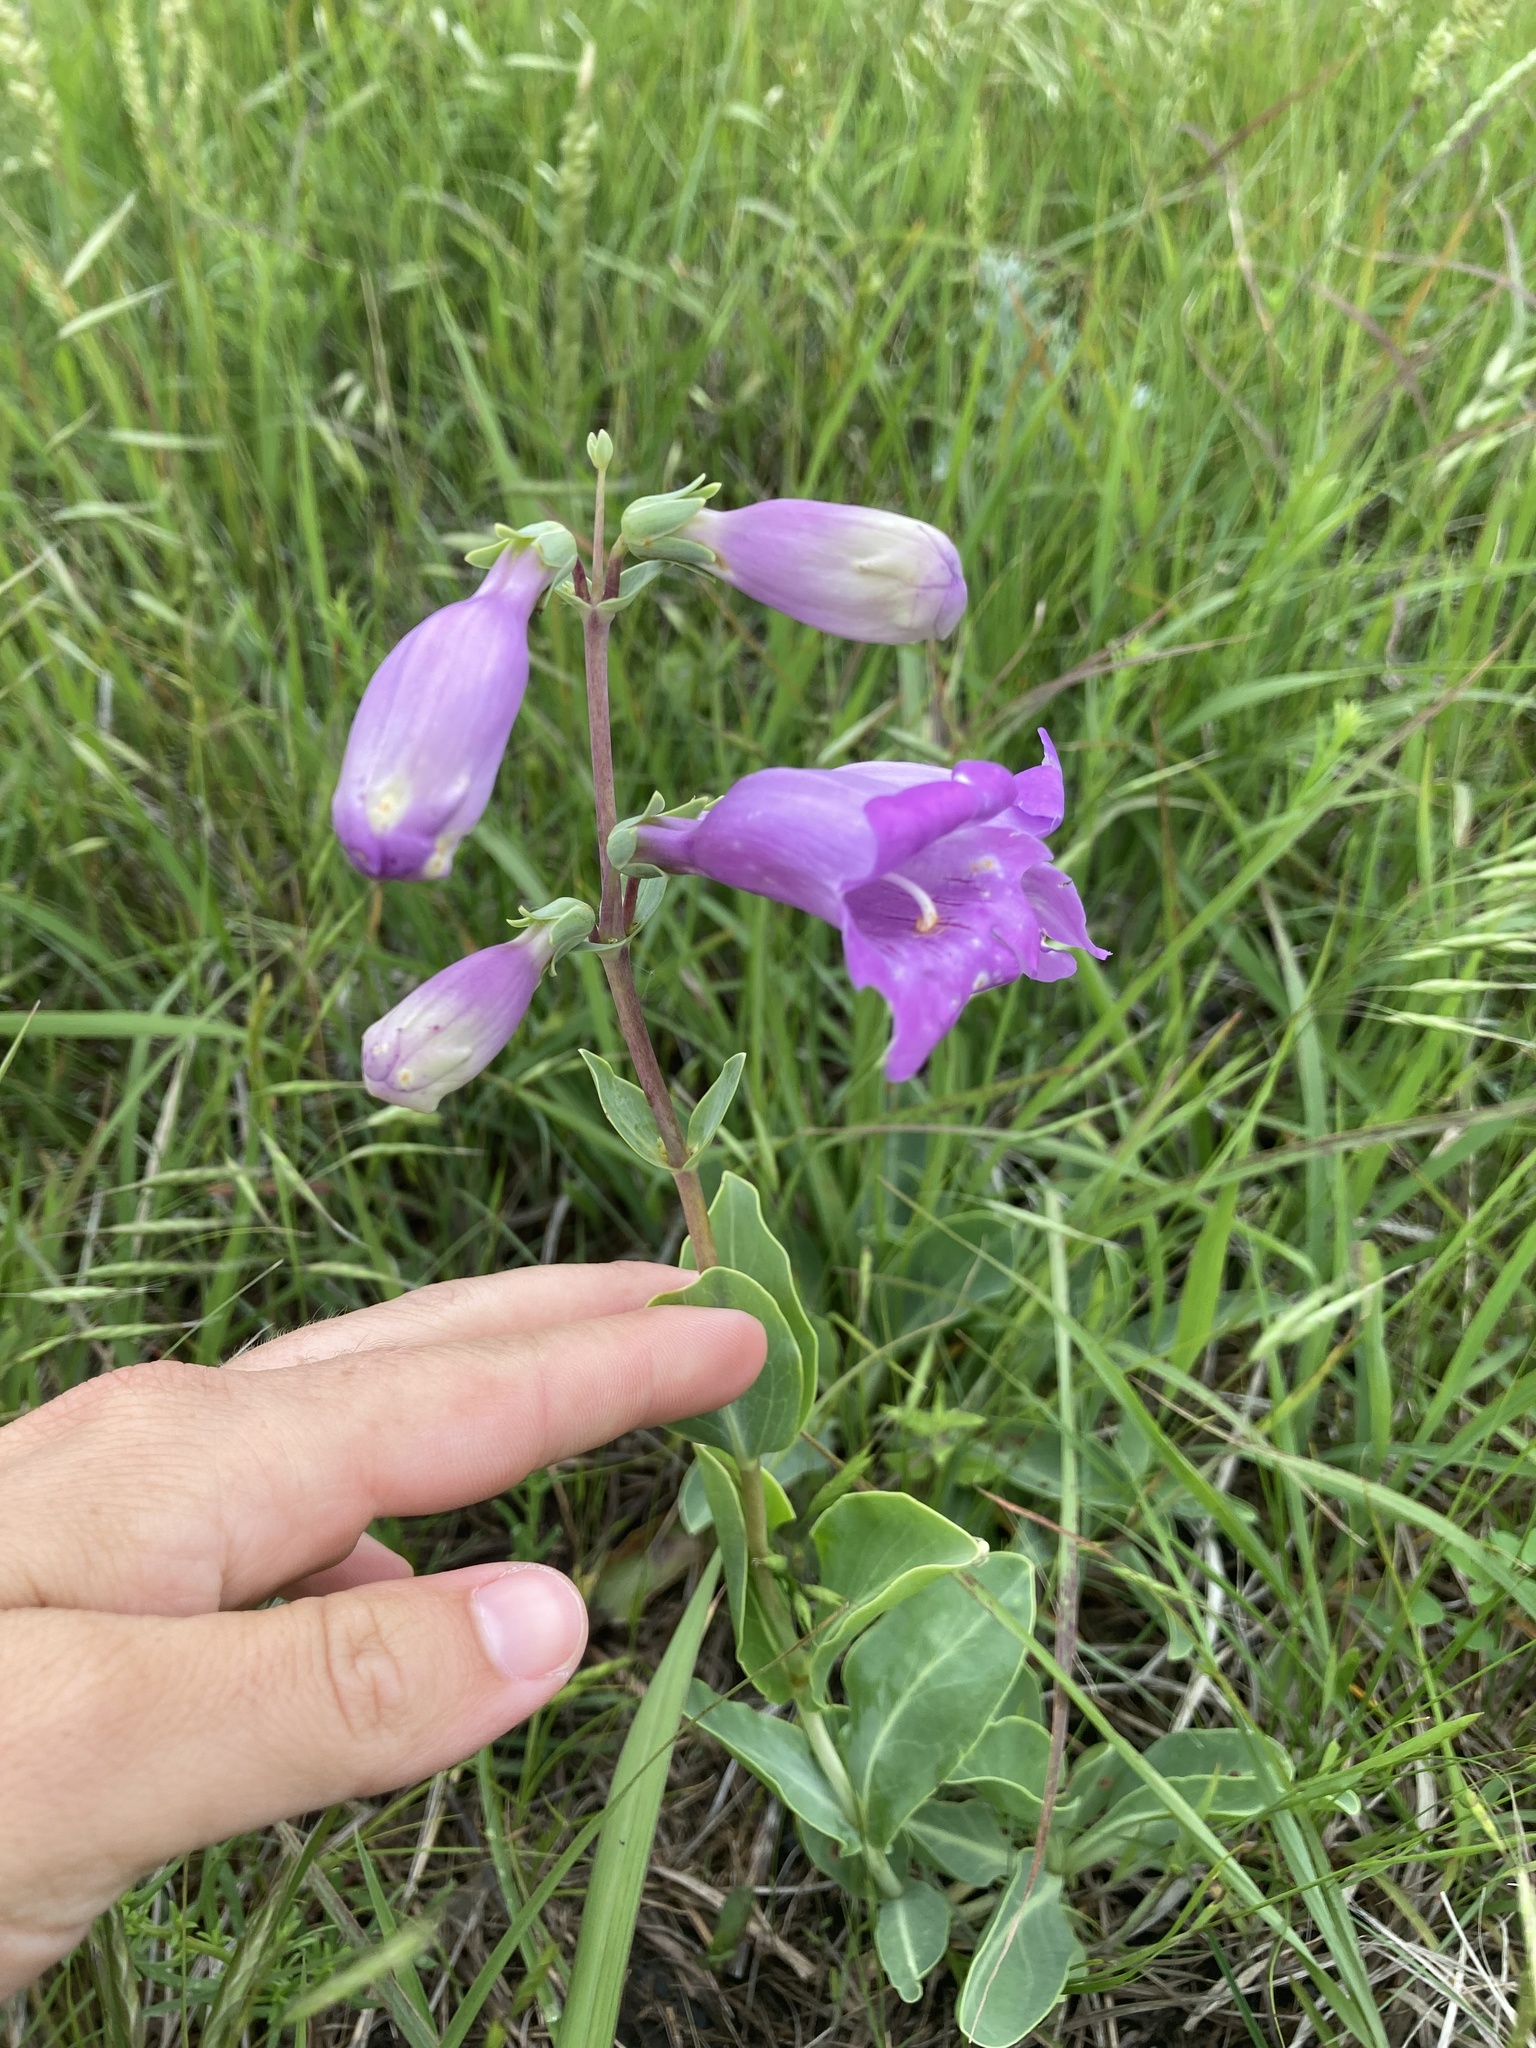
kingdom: Plantae
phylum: Tracheophyta
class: Magnoliopsida
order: Lamiales
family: Plantaginaceae
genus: Penstemon
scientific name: Penstemon
